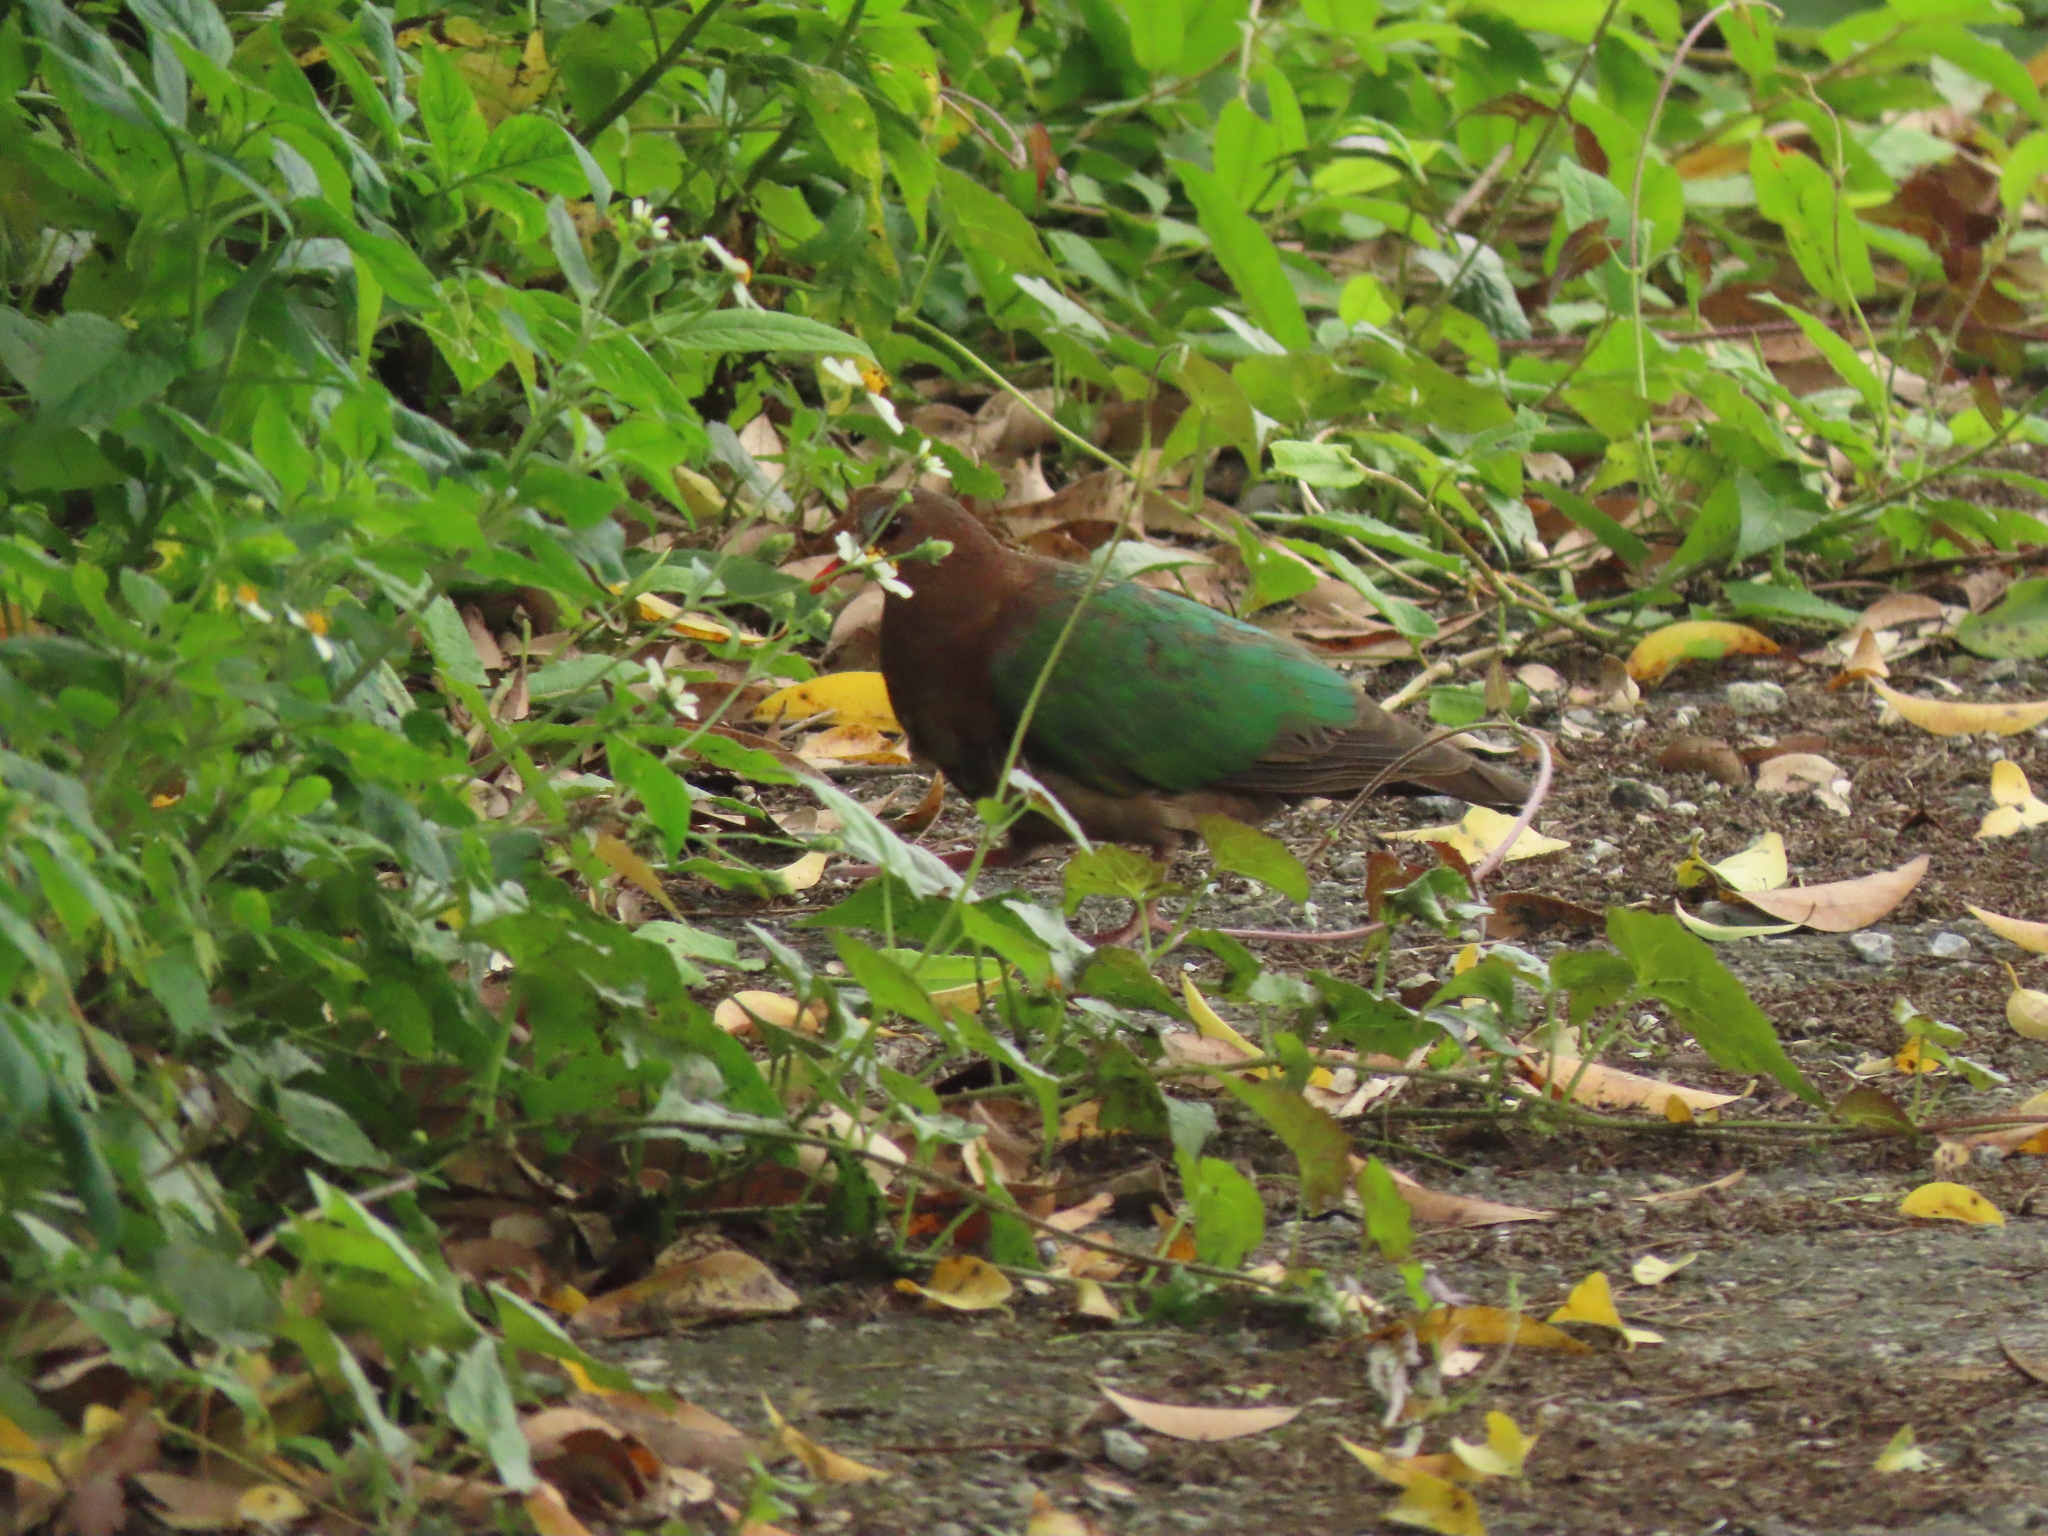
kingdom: Animalia
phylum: Chordata
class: Aves
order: Columbiformes
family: Columbidae
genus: Chalcophaps
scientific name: Chalcophaps indica
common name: Common emerald dove
